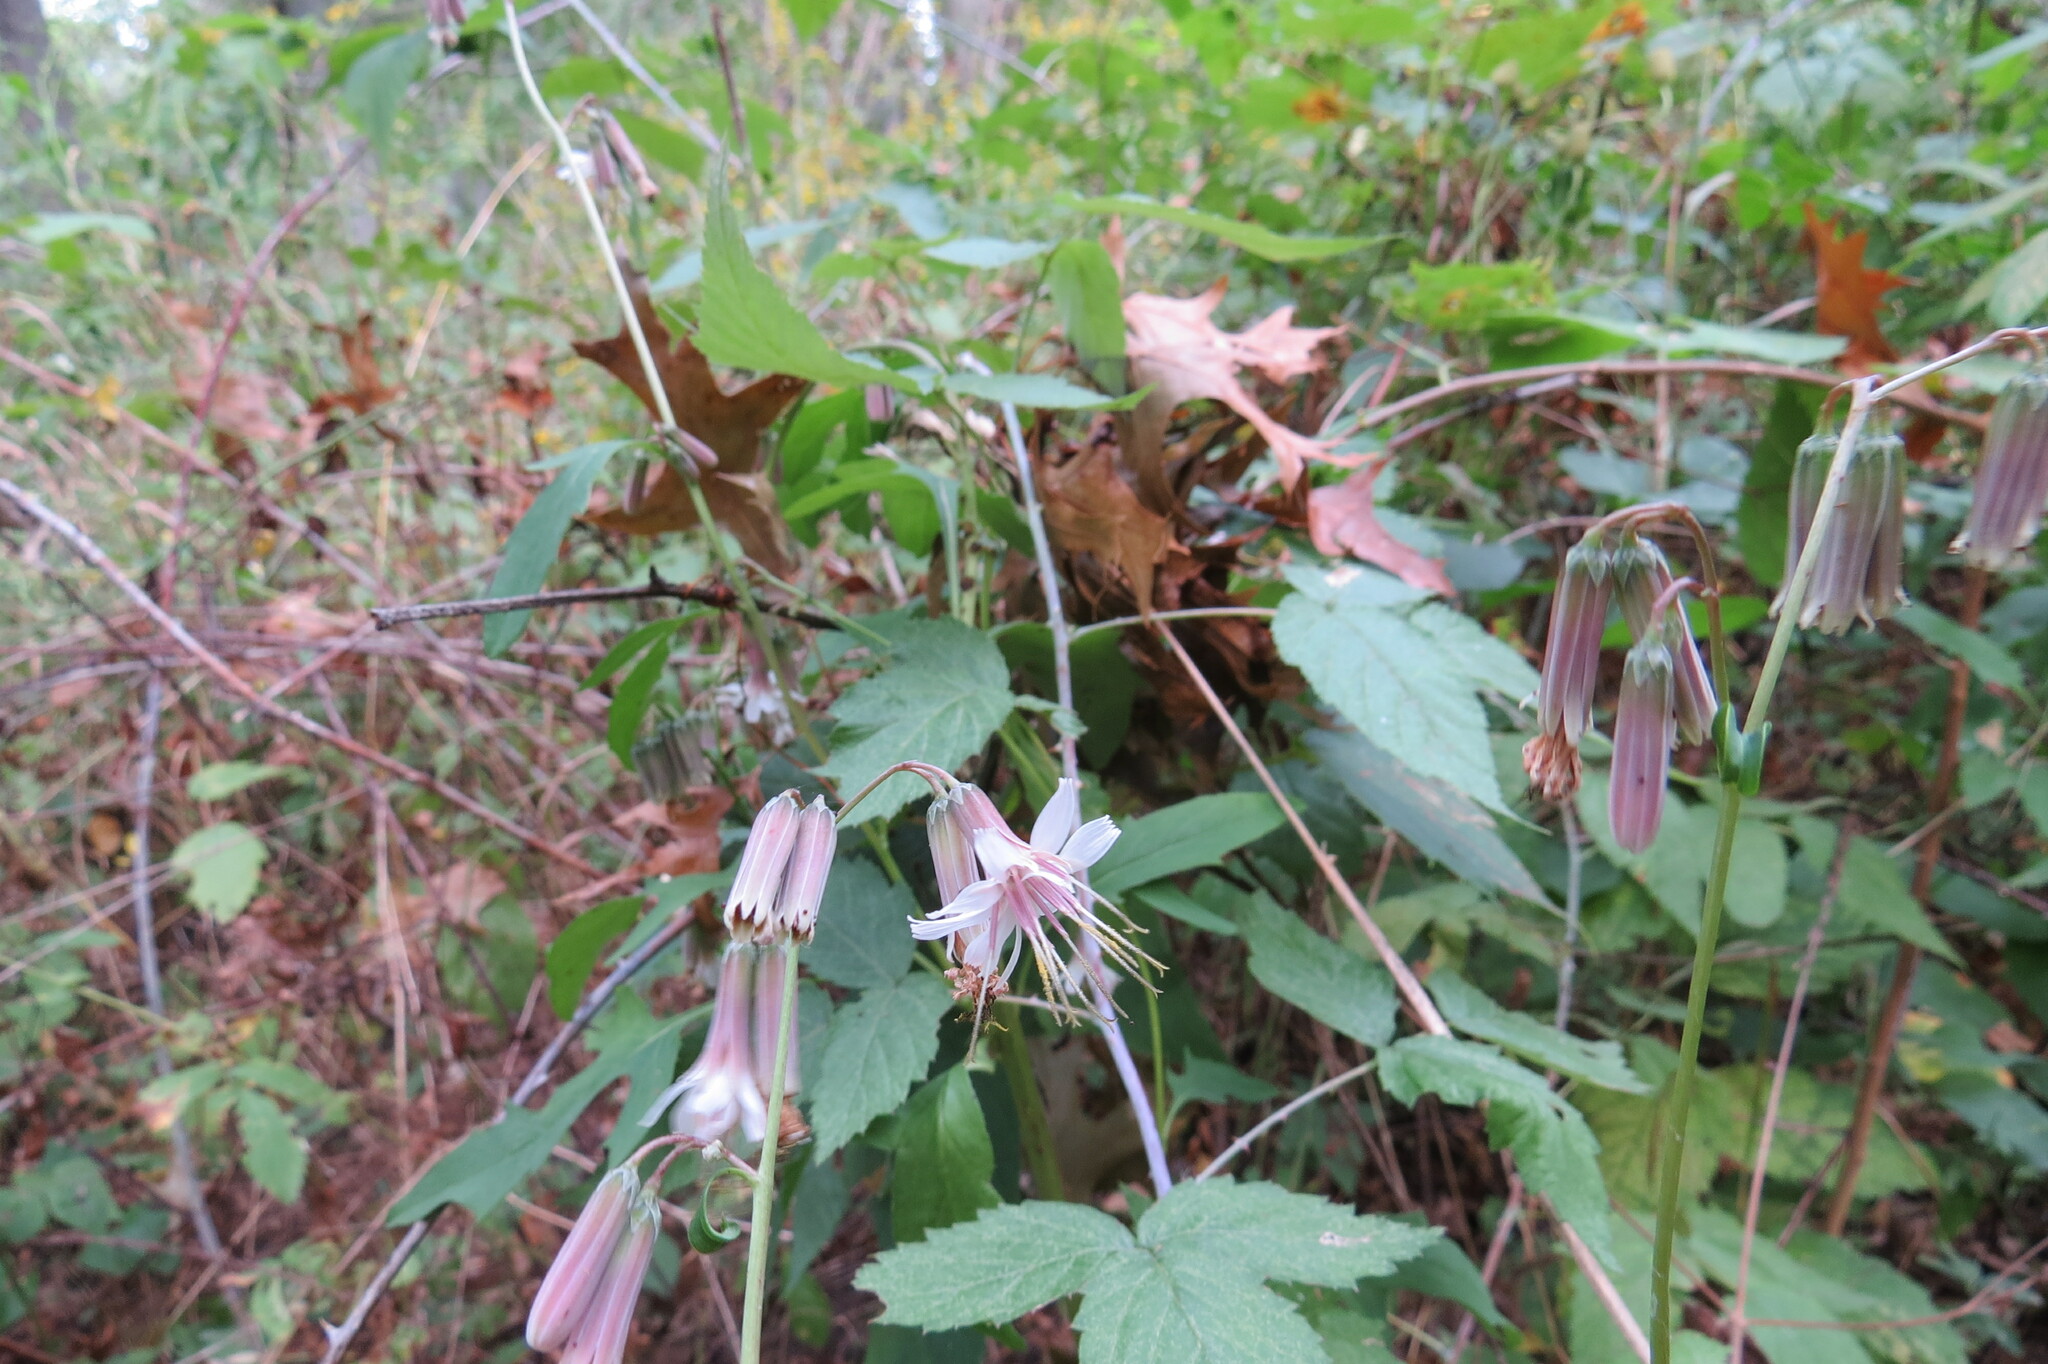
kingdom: Plantae
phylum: Tracheophyta
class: Magnoliopsida
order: Asterales
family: Asteraceae
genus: Nabalus
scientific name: Nabalus albus
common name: White rattlesnakeroot
